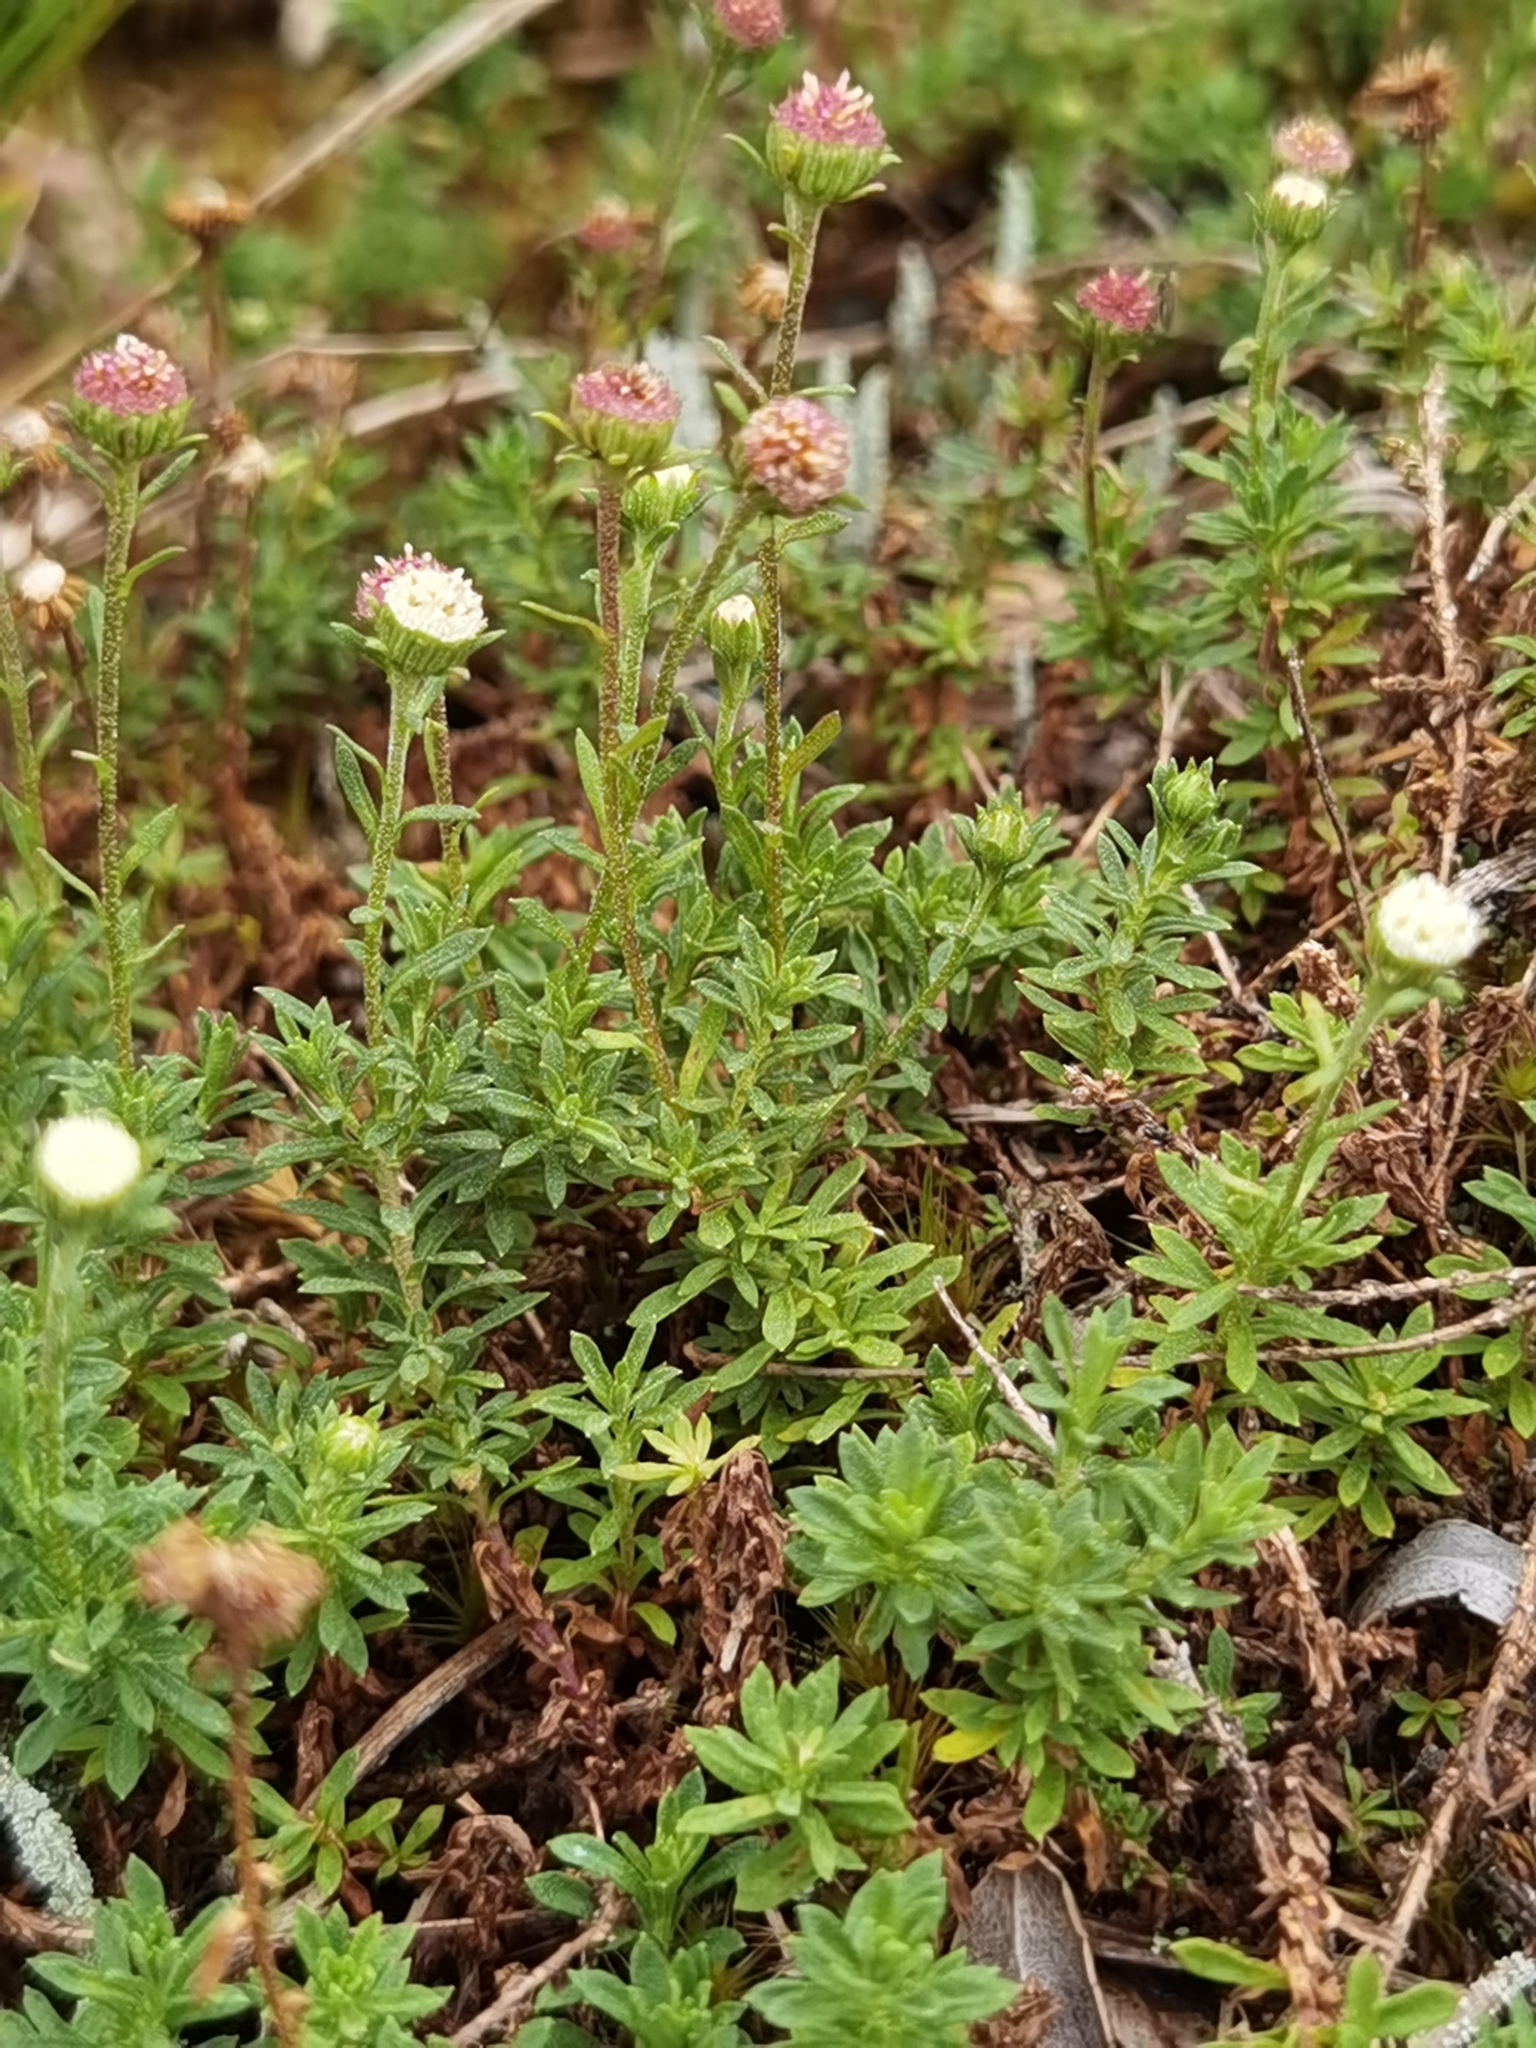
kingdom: Plantae
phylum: Tracheophyta
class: Magnoliopsida
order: Asterales
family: Asteraceae
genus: Laestadia
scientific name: Laestadia costaricensis
